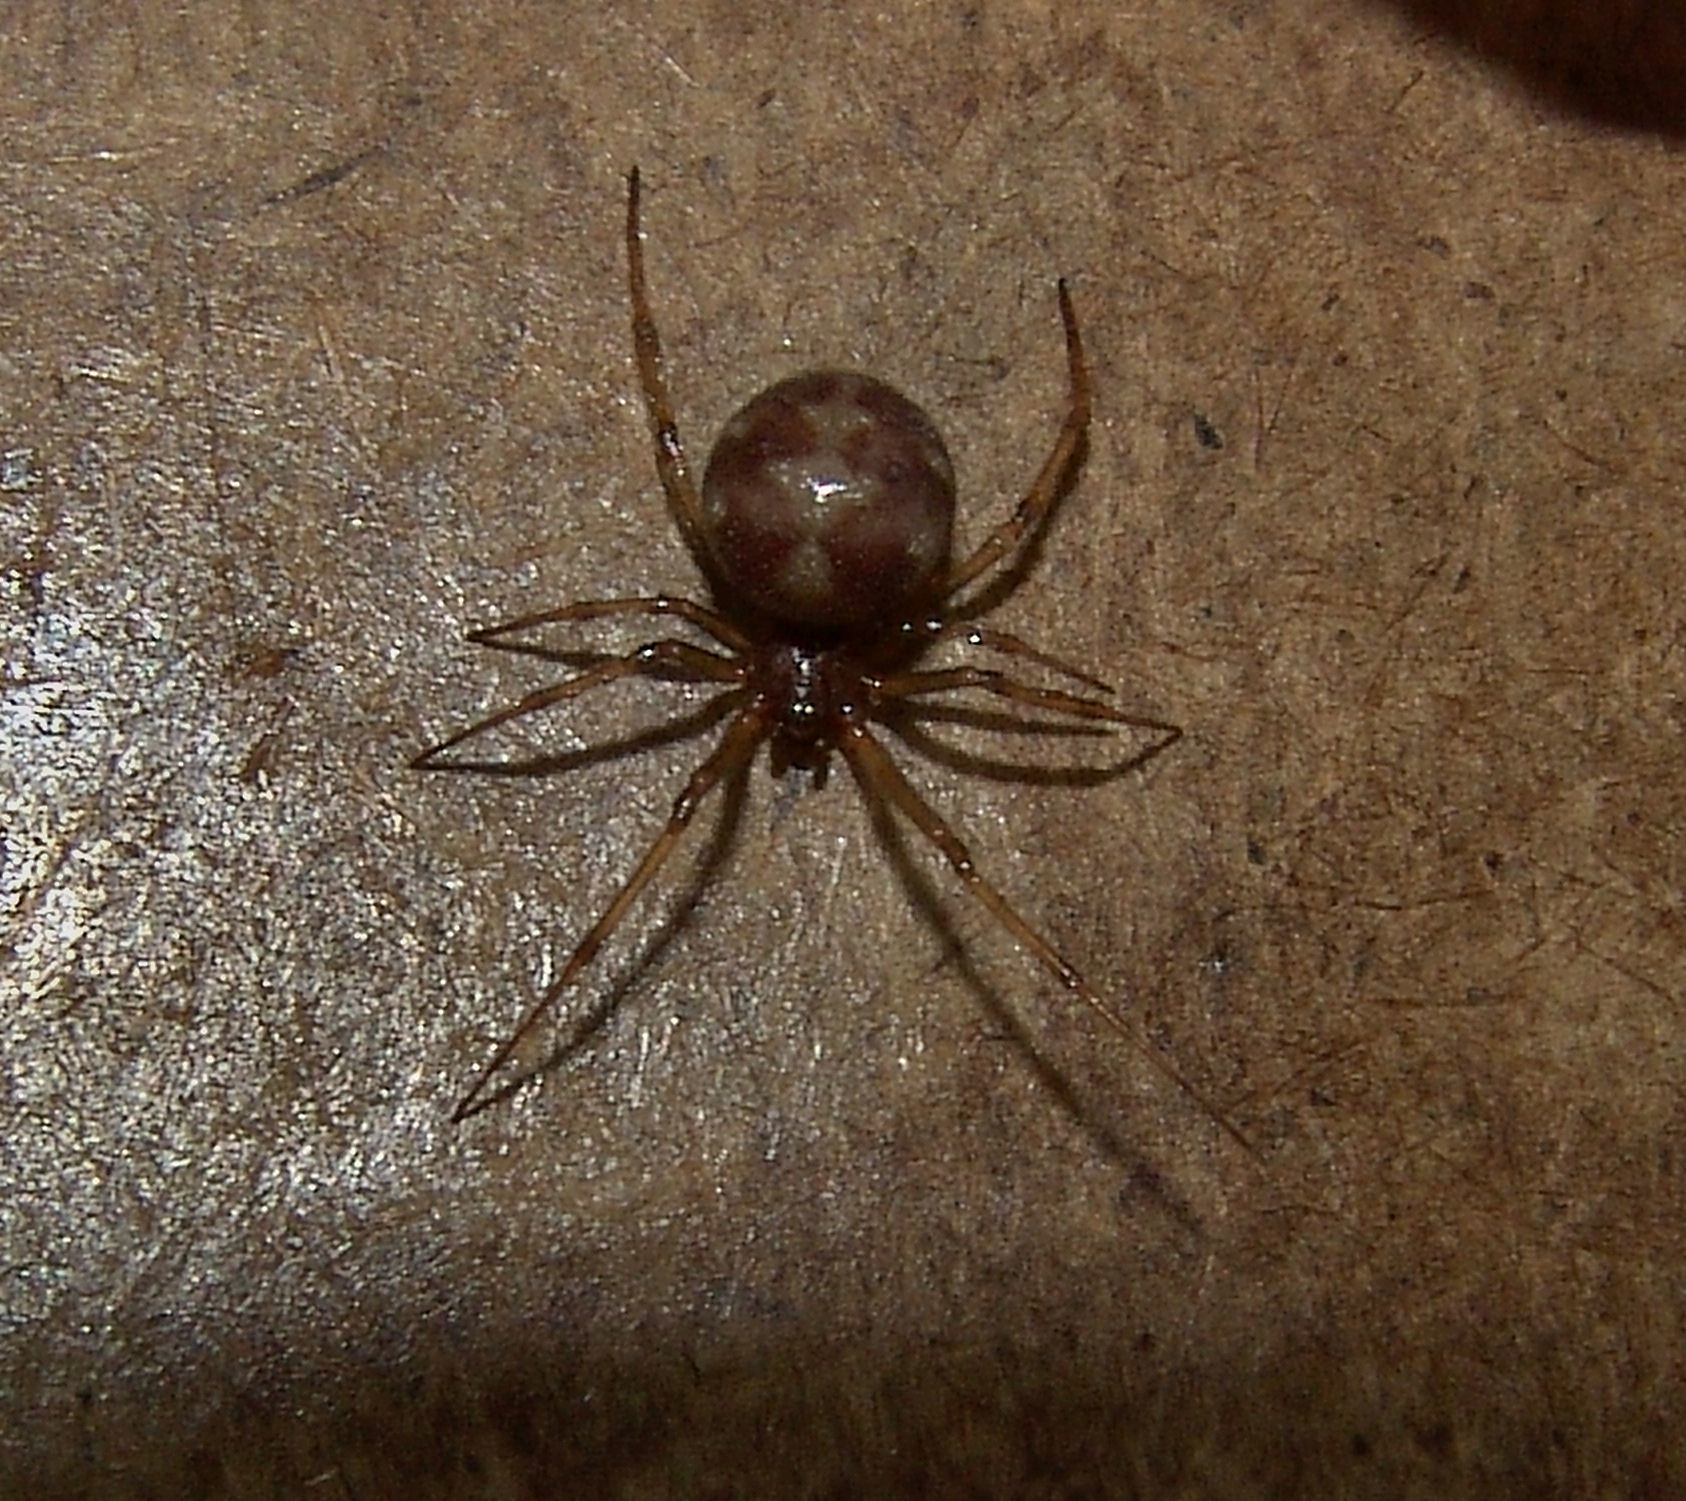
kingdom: Animalia
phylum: Arthropoda
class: Arachnida
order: Araneae
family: Theridiidae
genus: Steatoda
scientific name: Steatoda triangulosa
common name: Triangulate bud spider
